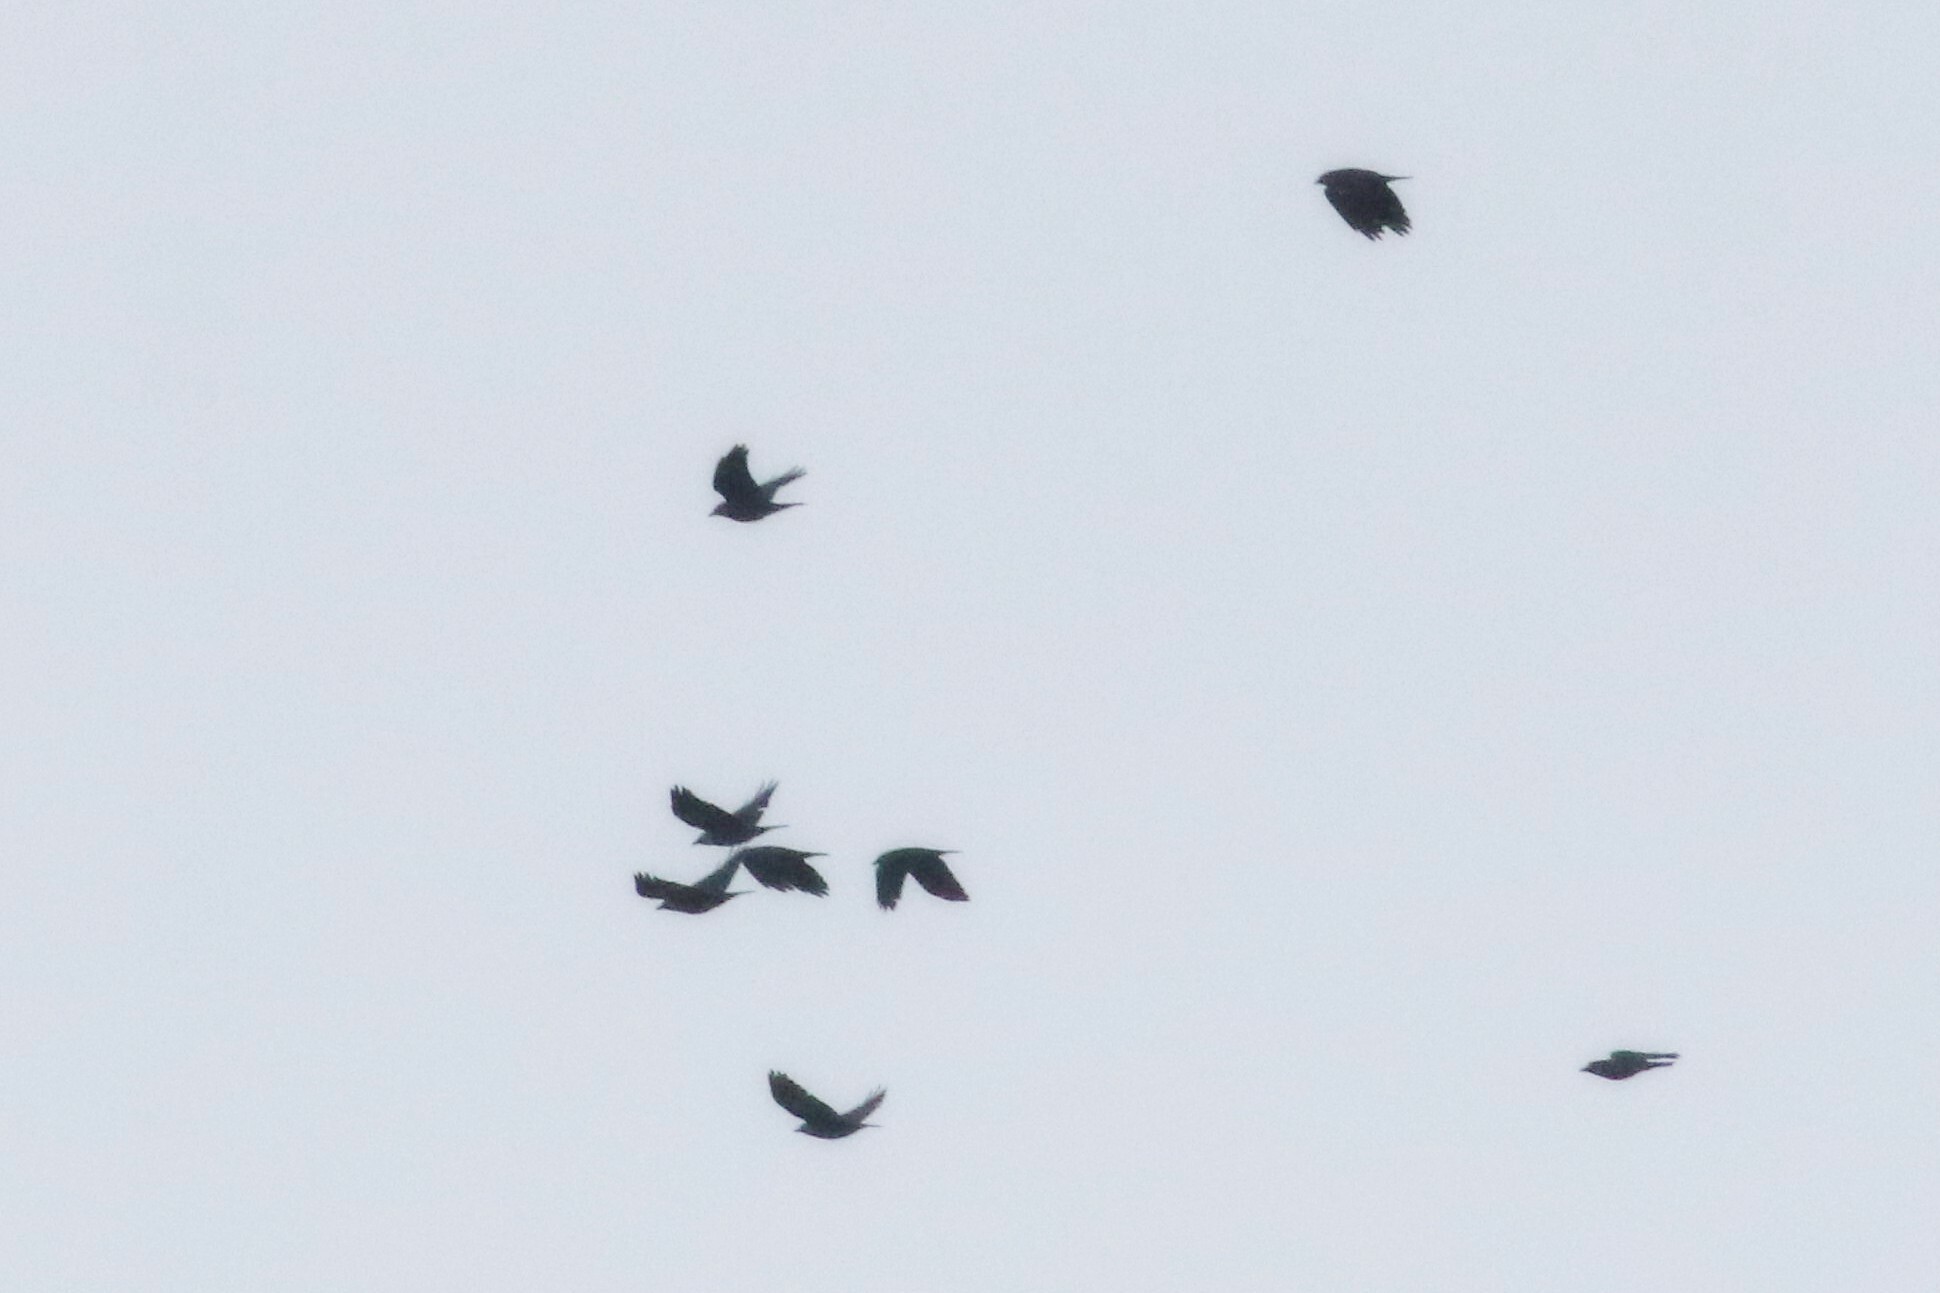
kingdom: Animalia
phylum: Chordata
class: Aves
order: Passeriformes
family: Corvidae
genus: Coloeus
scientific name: Coloeus monedula
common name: Western jackdaw
